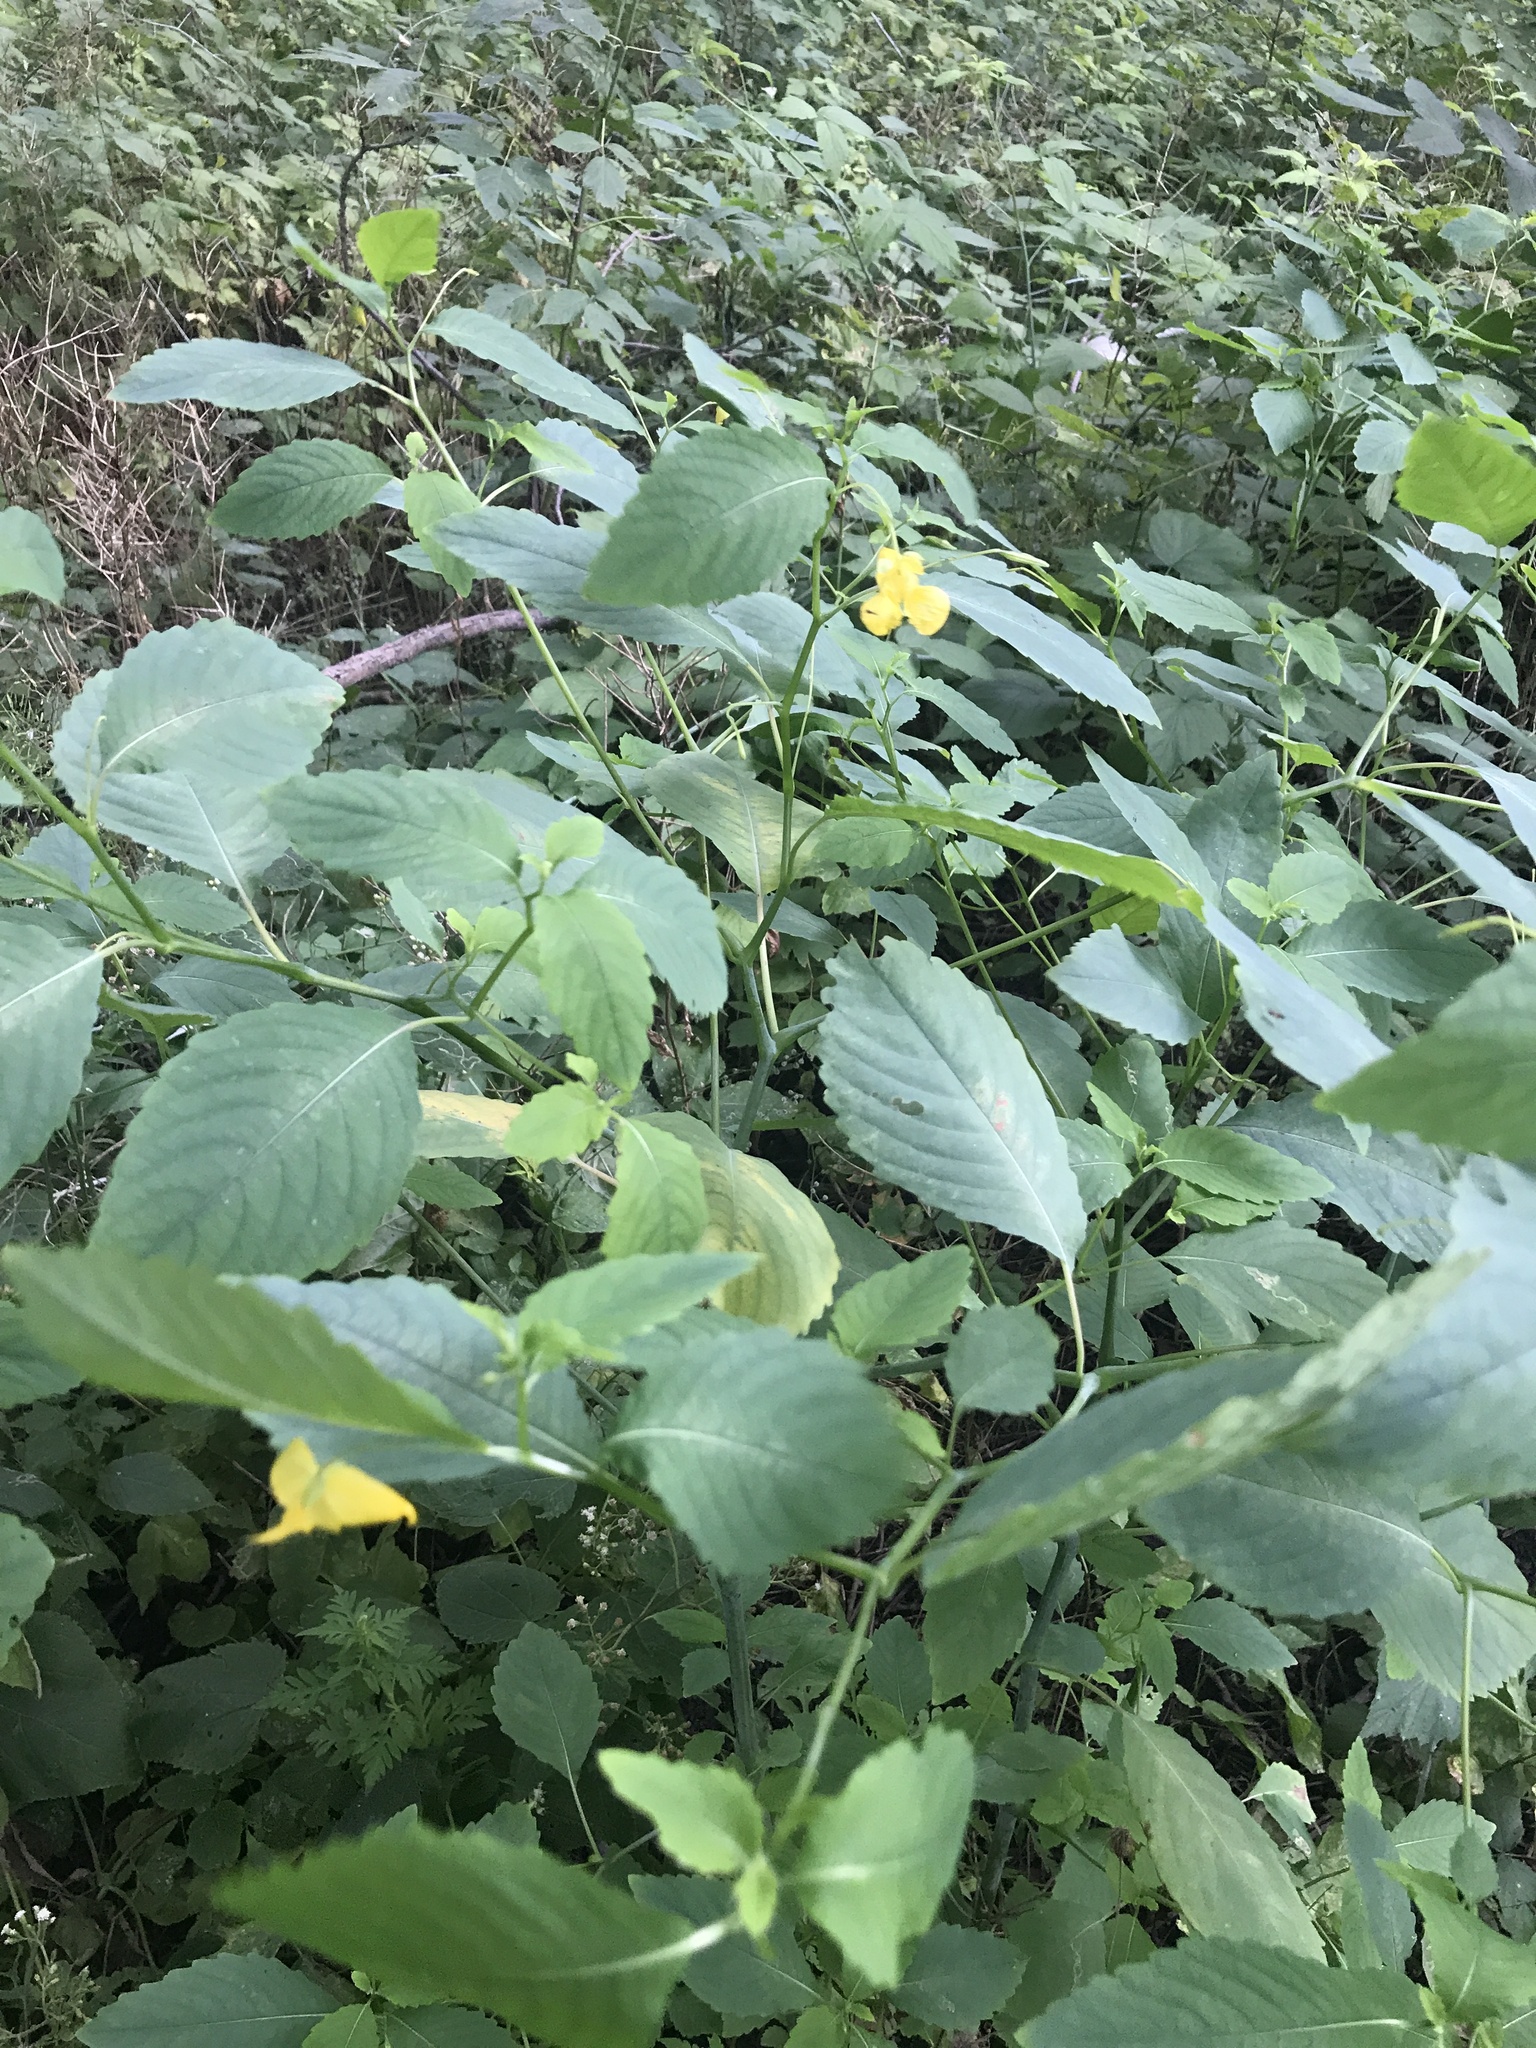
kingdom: Plantae
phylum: Tracheophyta
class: Magnoliopsida
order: Ericales
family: Balsaminaceae
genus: Impatiens
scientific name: Impatiens pallida
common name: Pale snapweed
